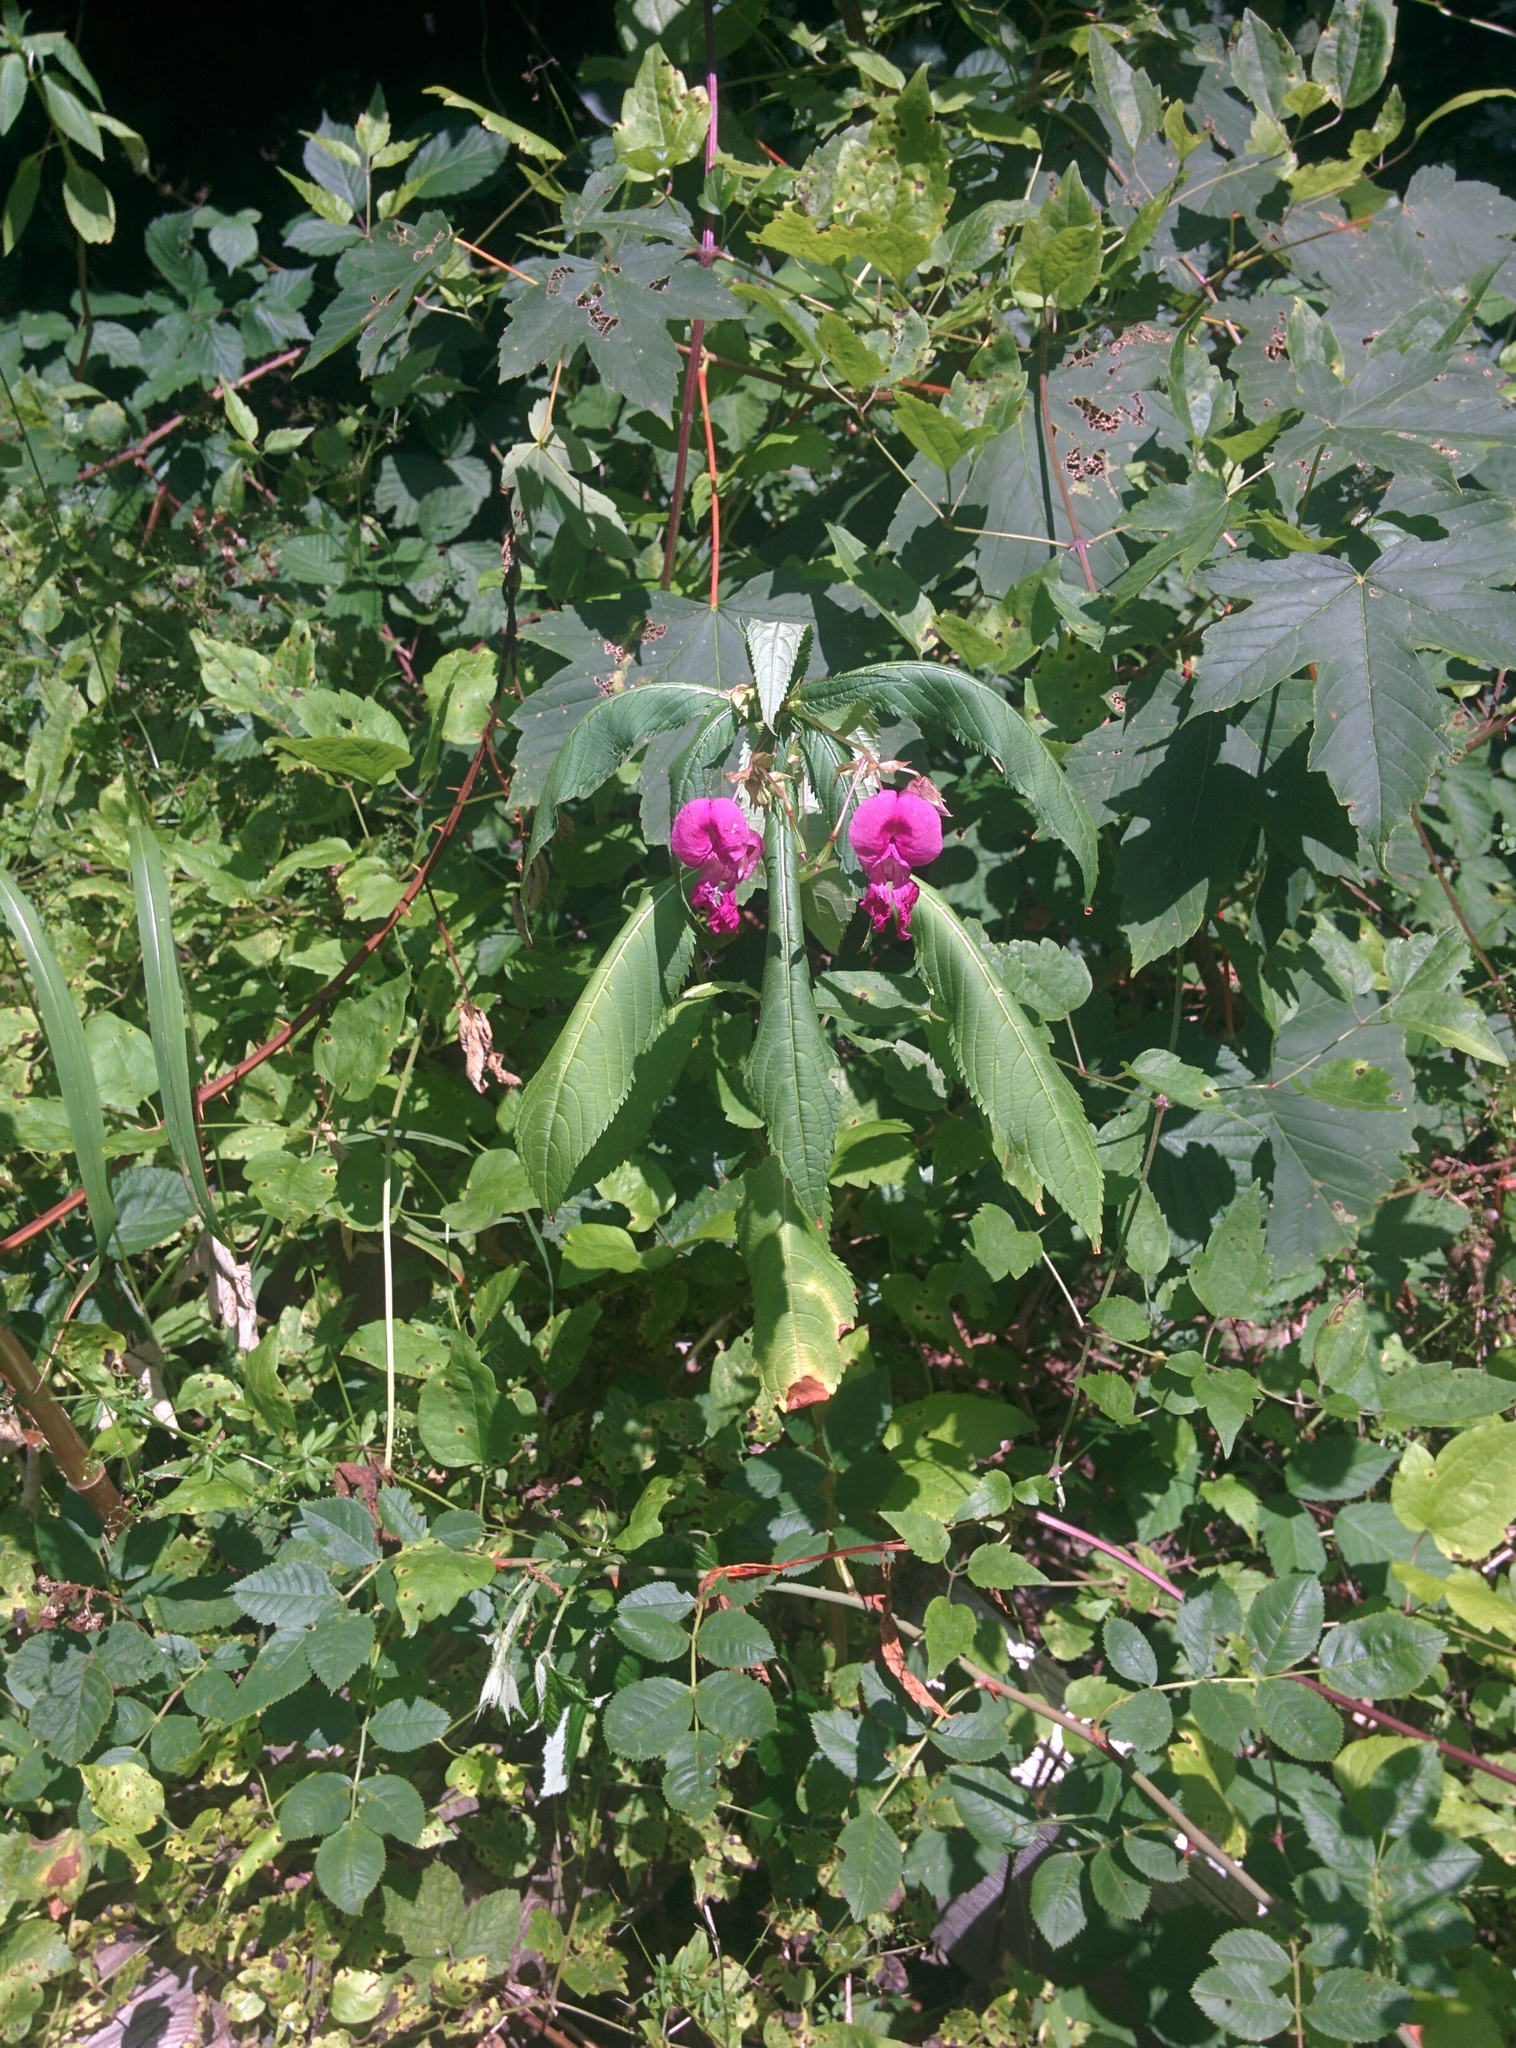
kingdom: Plantae
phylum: Tracheophyta
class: Magnoliopsida
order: Ericales
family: Balsaminaceae
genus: Impatiens
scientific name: Impatiens glandulifera
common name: Himalayan balsam
